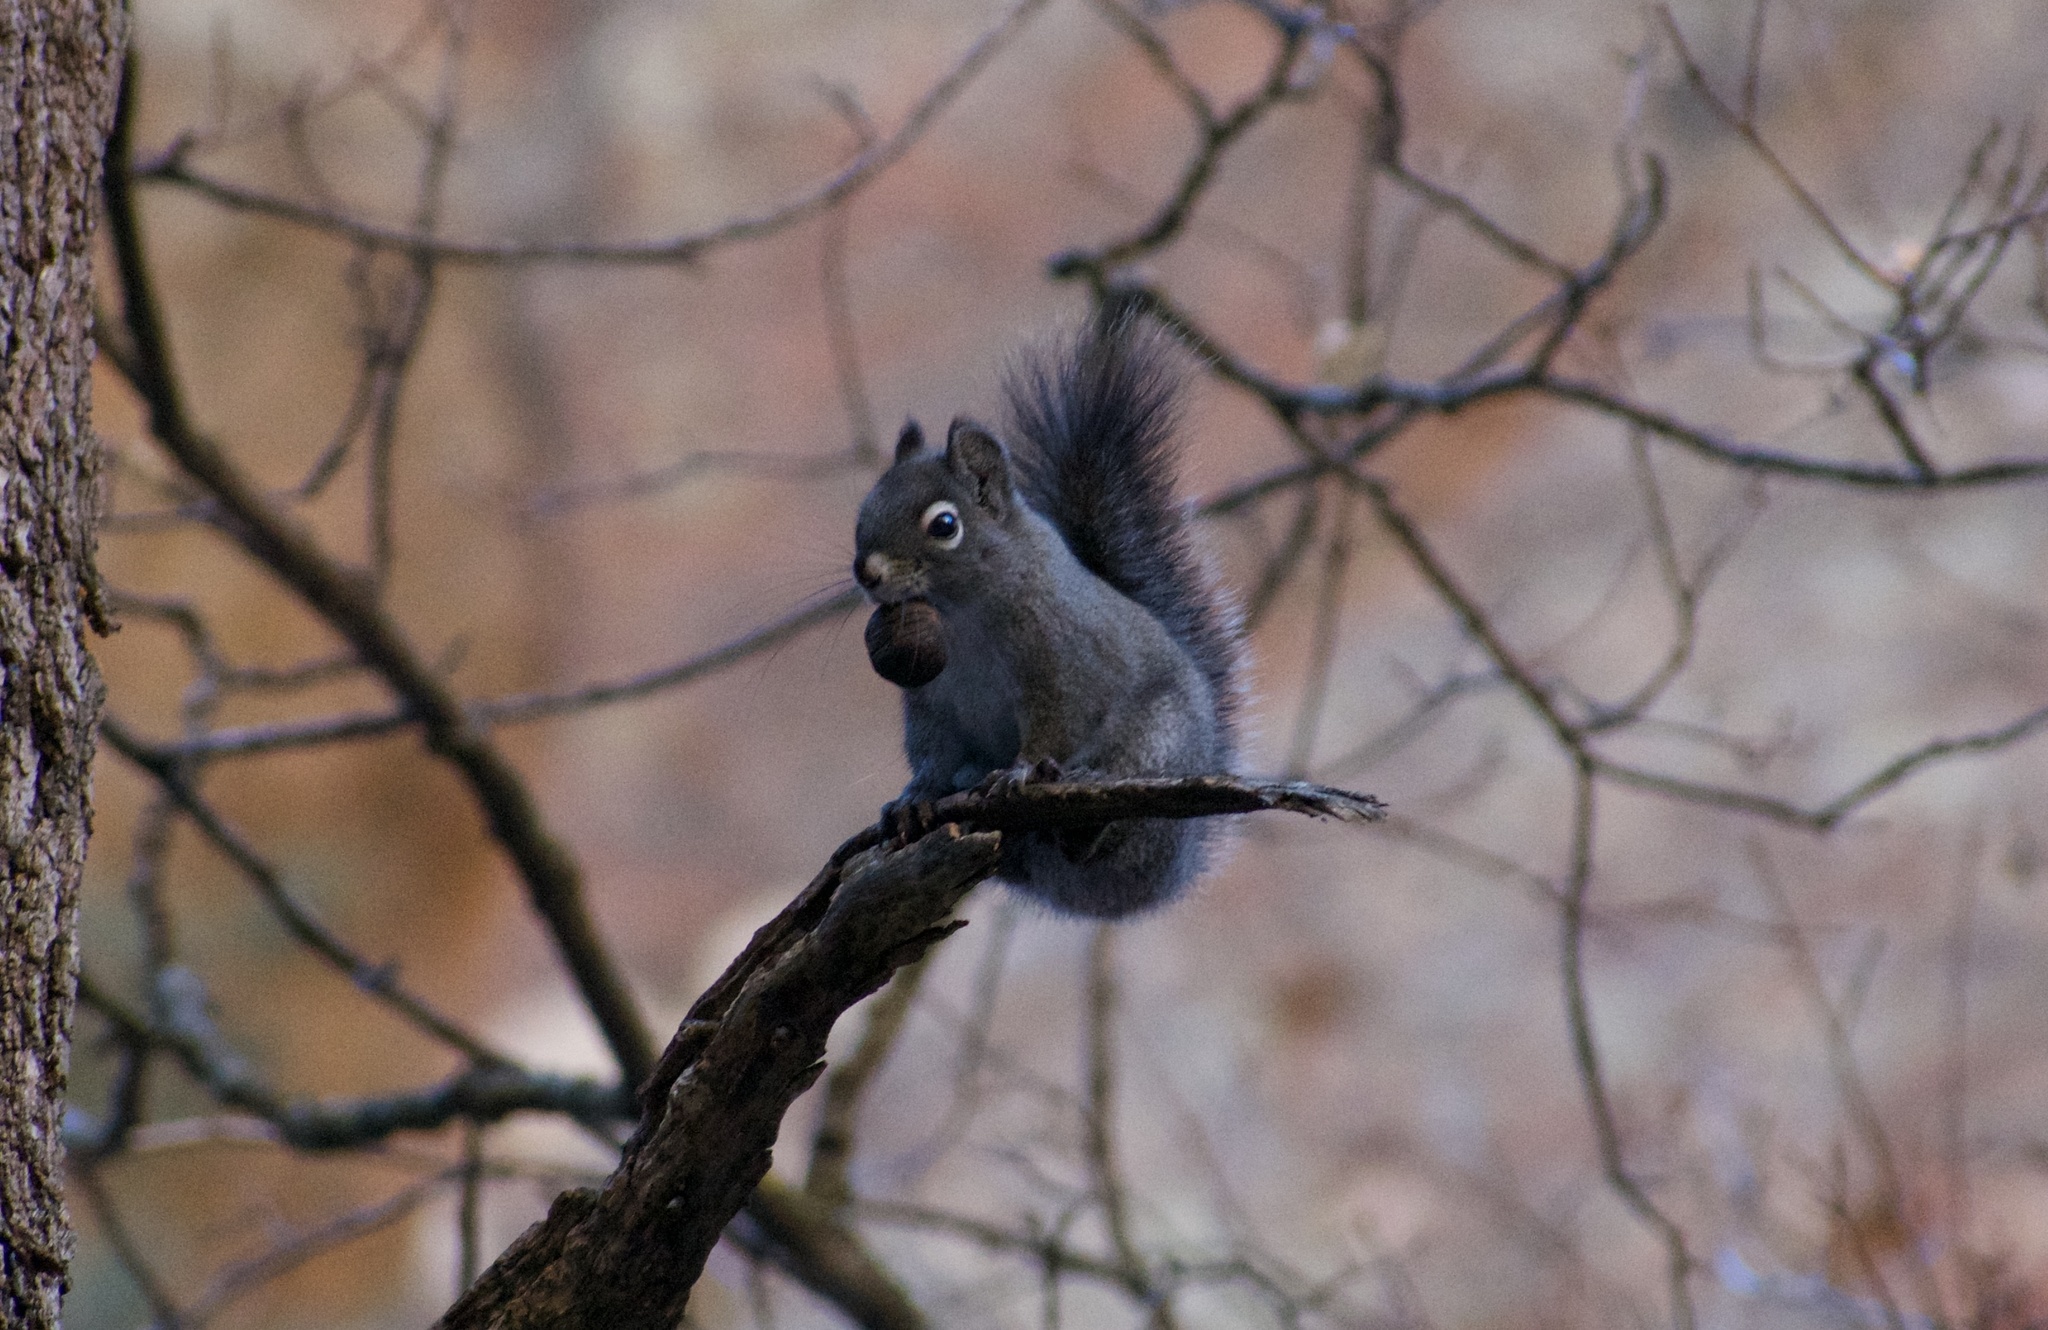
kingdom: Animalia
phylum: Chordata
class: Mammalia
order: Rodentia
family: Sciuridae
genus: Tamiasciurus
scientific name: Tamiasciurus hudsonicus
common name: Red squirrel
